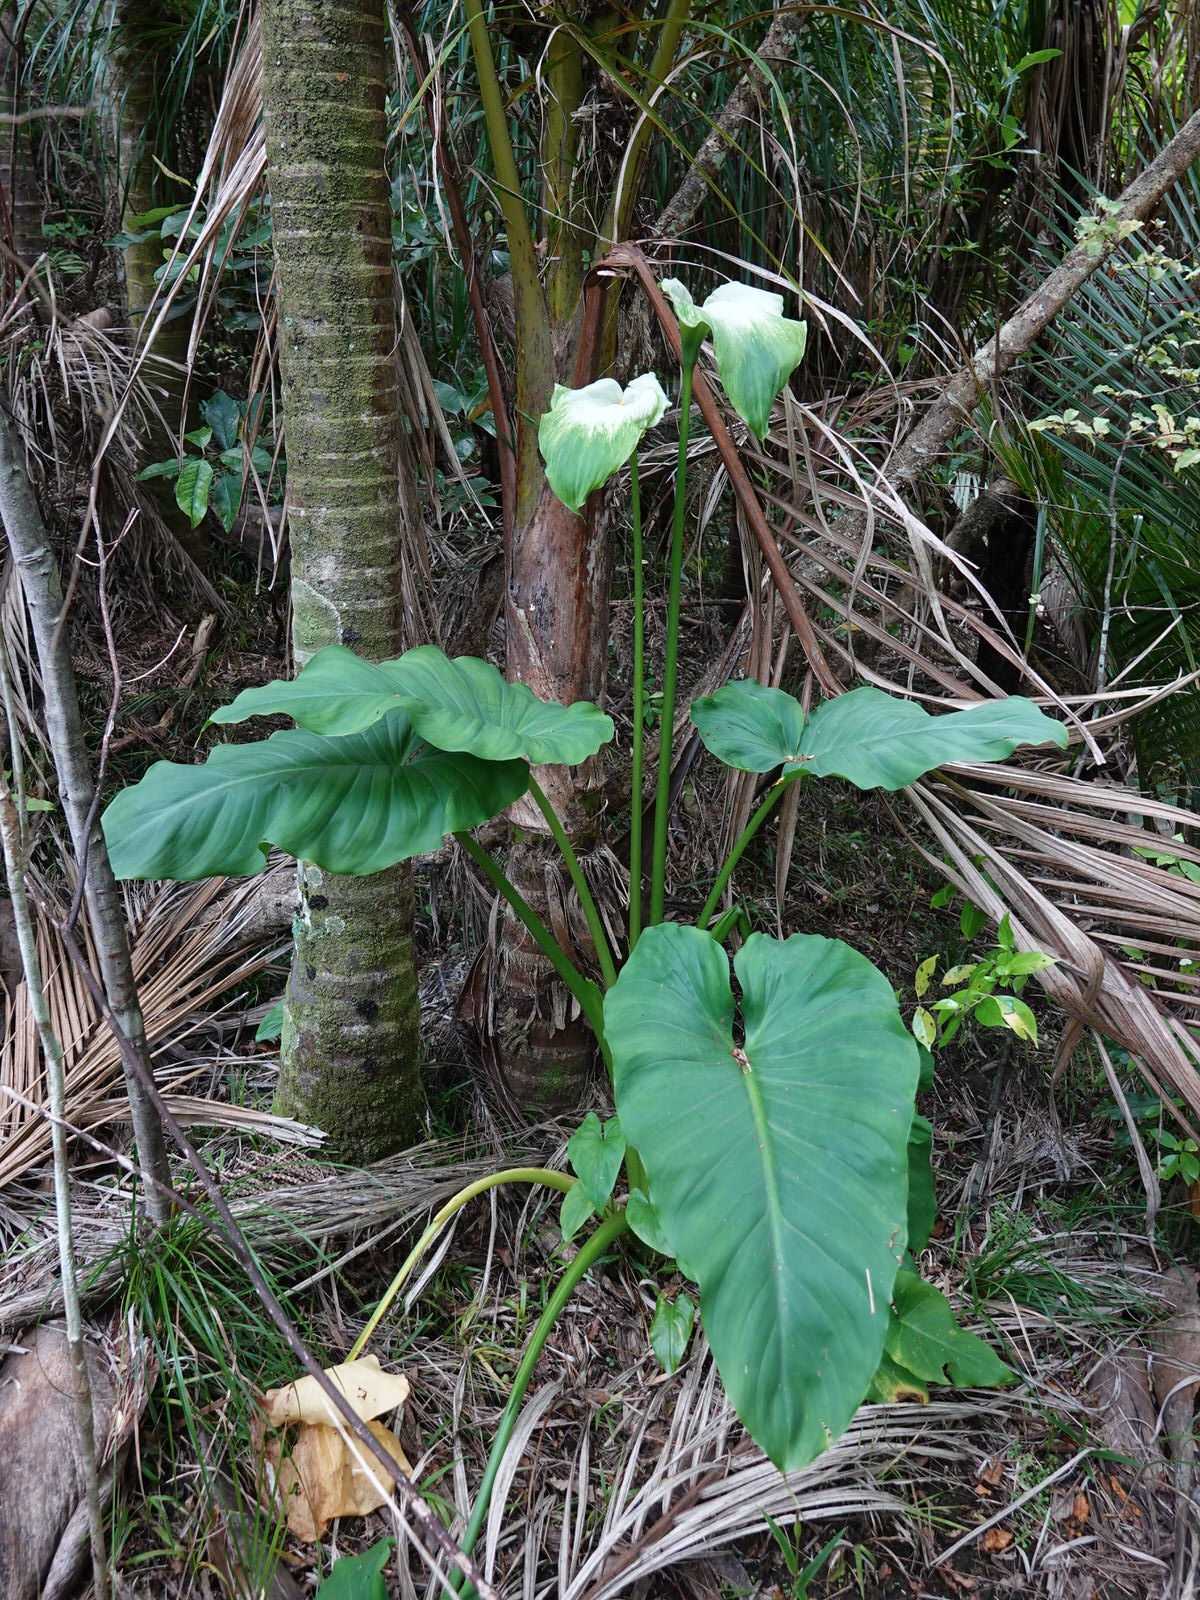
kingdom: Plantae
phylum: Tracheophyta
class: Liliopsida
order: Alismatales
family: Araceae
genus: Zantedeschia
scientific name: Zantedeschia aethiopica
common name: Altar-lily
